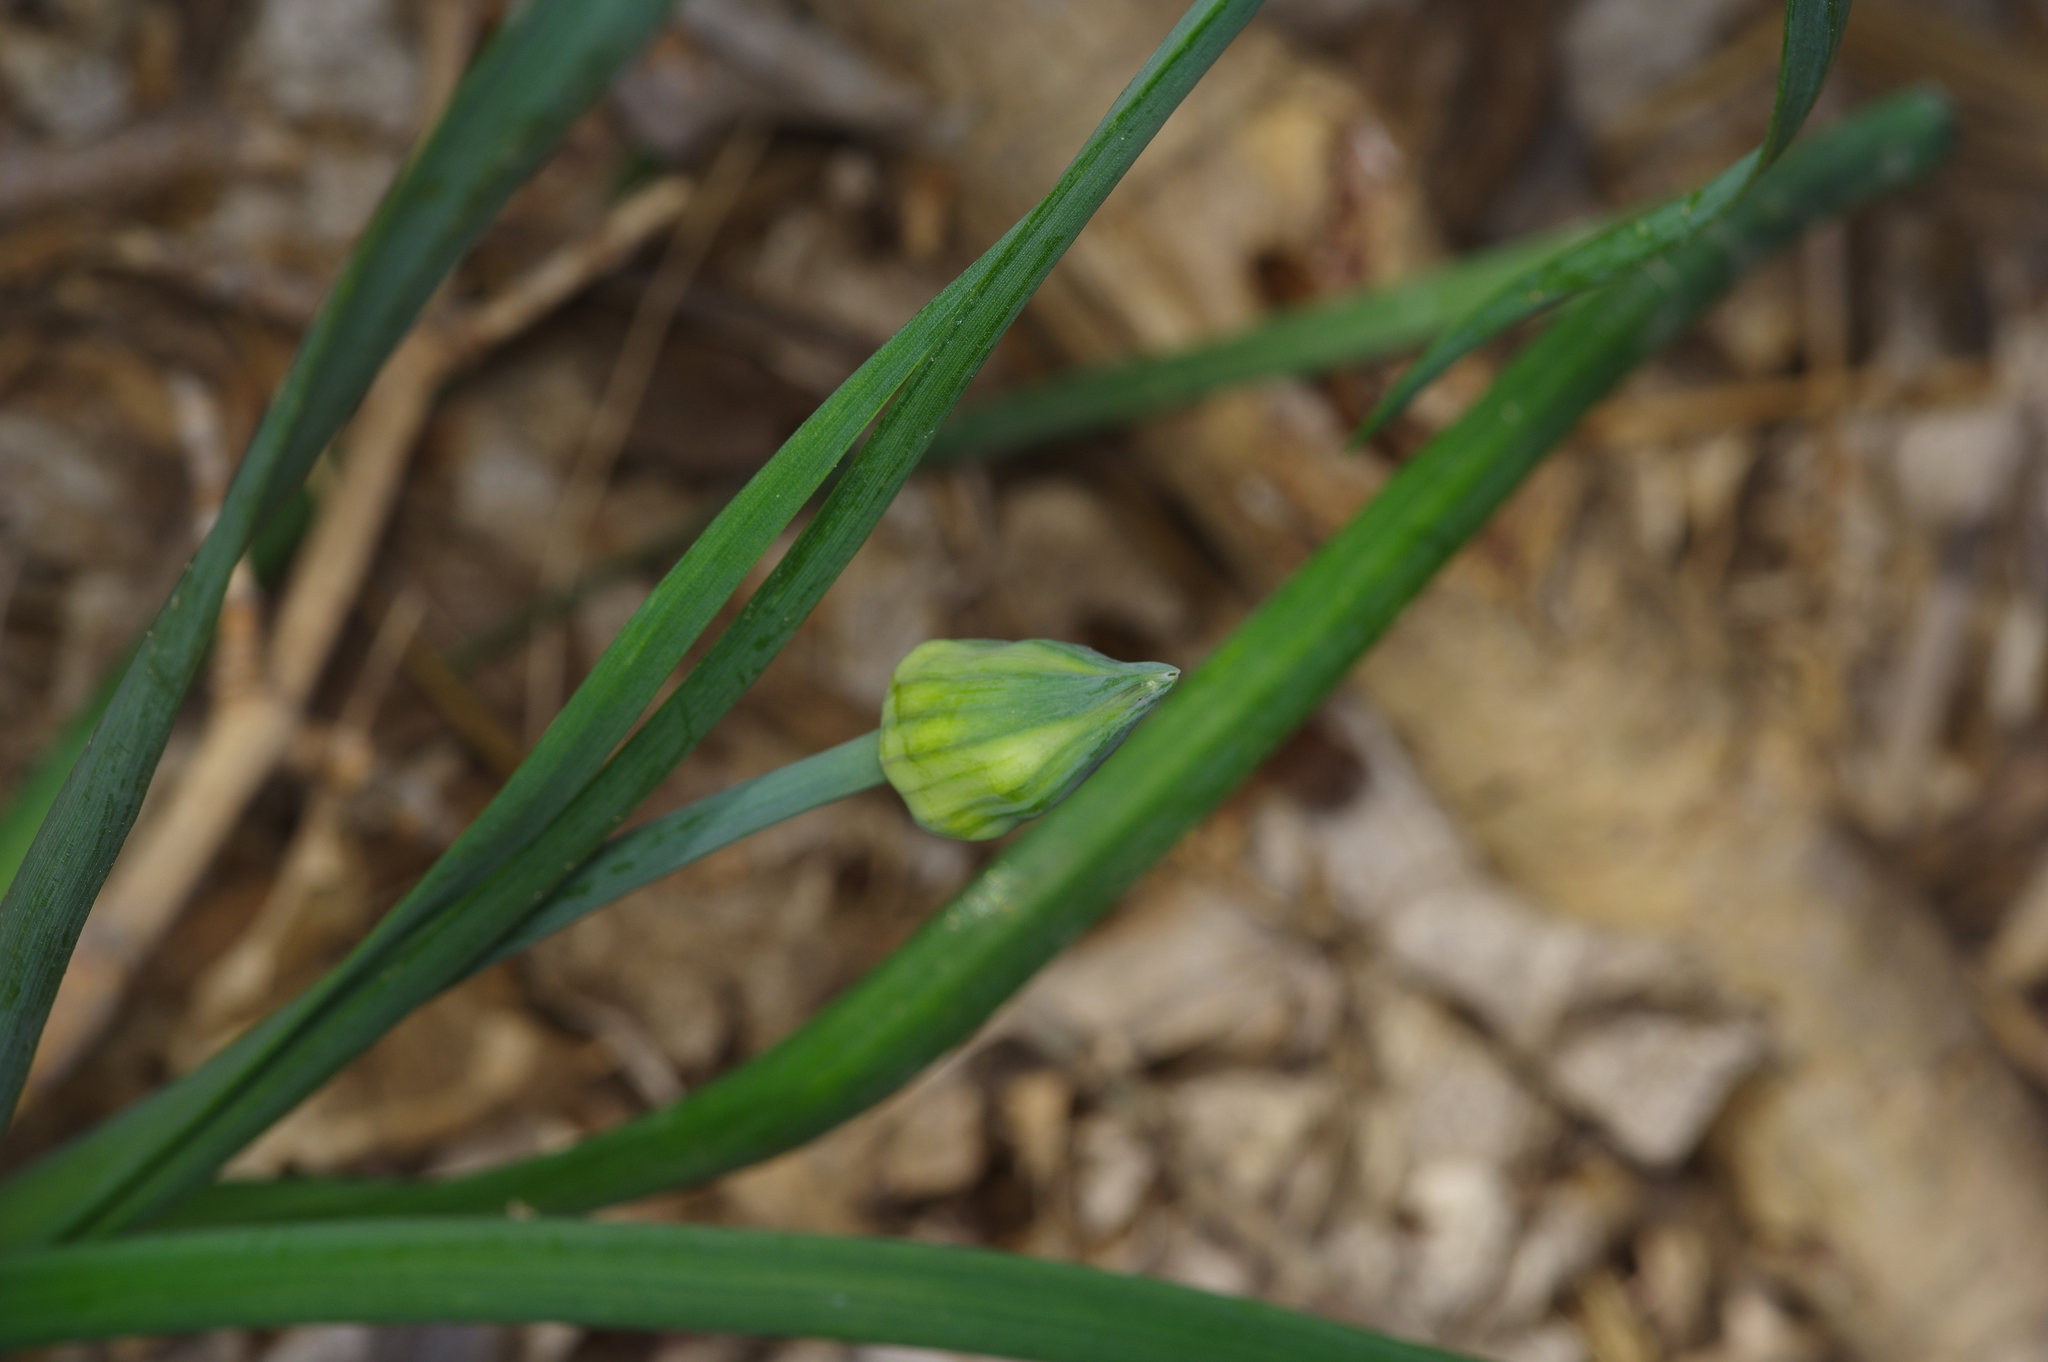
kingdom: Plantae
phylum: Tracheophyta
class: Liliopsida
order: Asparagales
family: Amaryllidaceae
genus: Allium
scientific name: Allium canadense
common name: Meadow garlic
